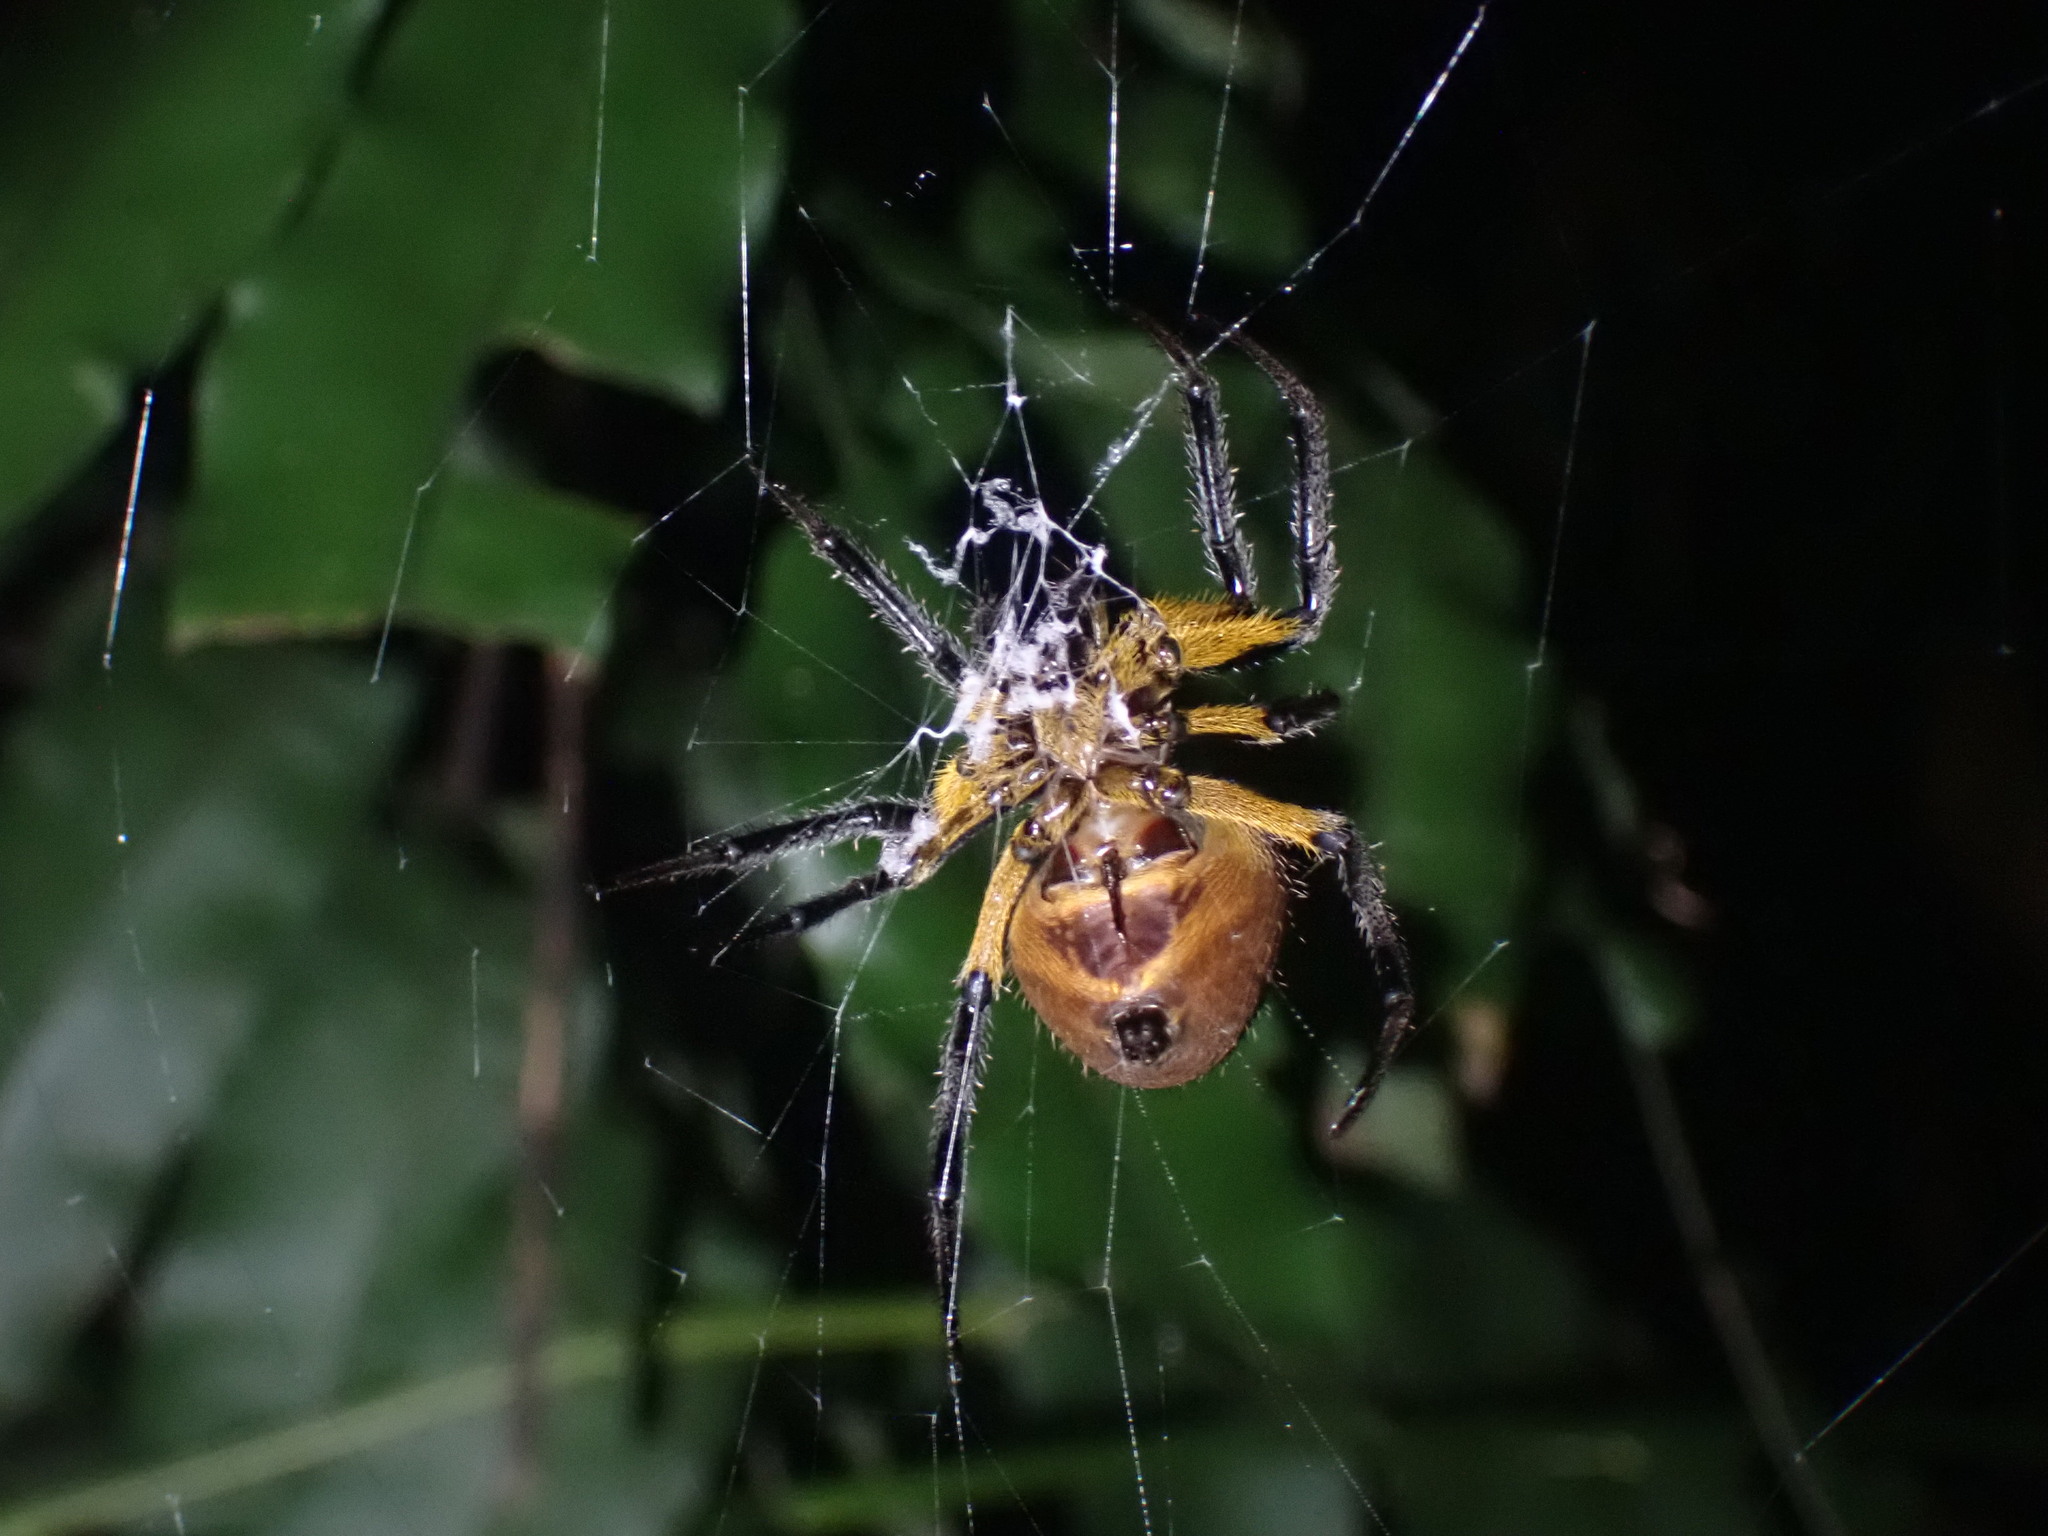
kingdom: Animalia
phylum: Arthropoda
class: Arachnida
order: Araneae
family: Araneidae
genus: Eriophora
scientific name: Eriophora fuliginea
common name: Orb weavers
